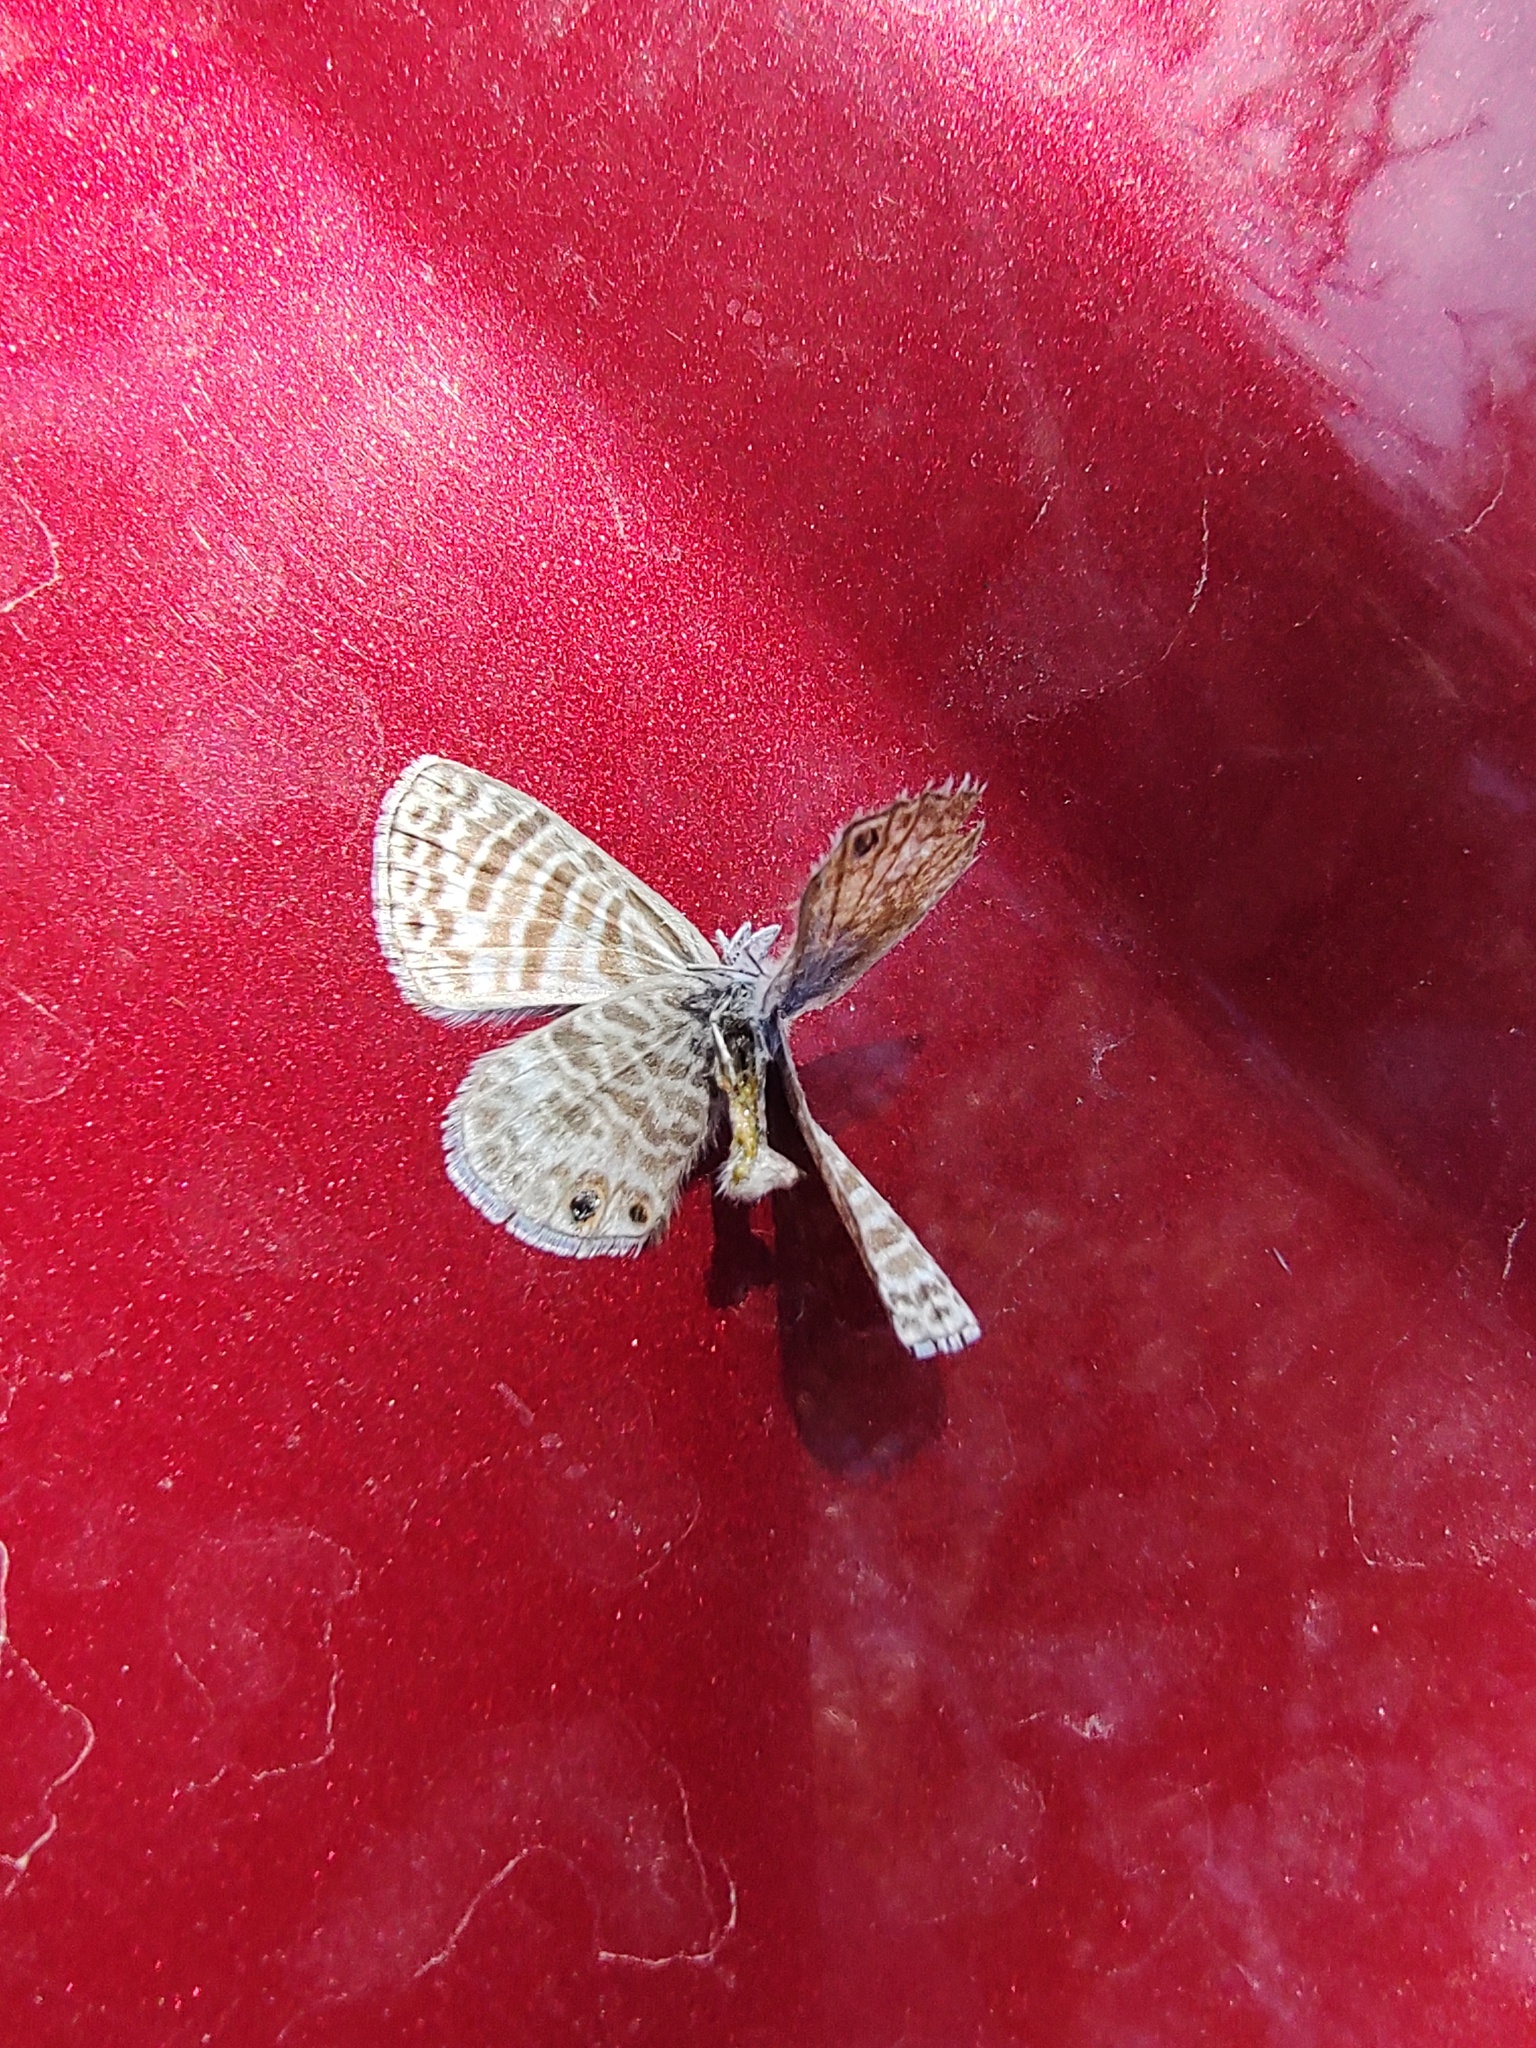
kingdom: Animalia
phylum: Arthropoda
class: Insecta
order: Lepidoptera
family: Lycaenidae
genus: Leptotes
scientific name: Leptotes marina
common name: Marine blue
